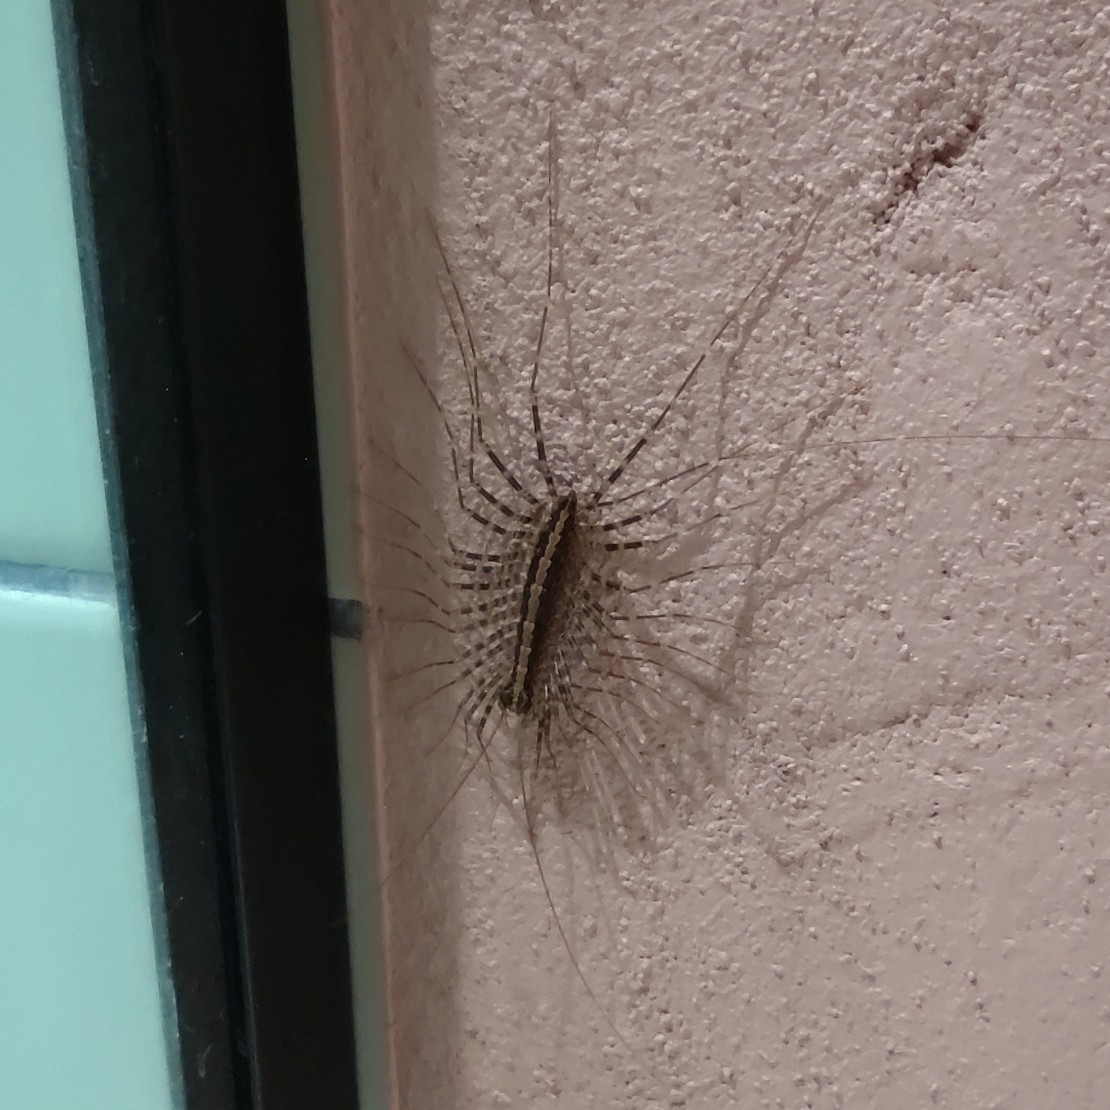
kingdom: Animalia
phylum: Arthropoda
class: Chilopoda
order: Scutigeromorpha
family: Pselliodidae
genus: Sphendononema
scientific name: Sphendononema guildingii
